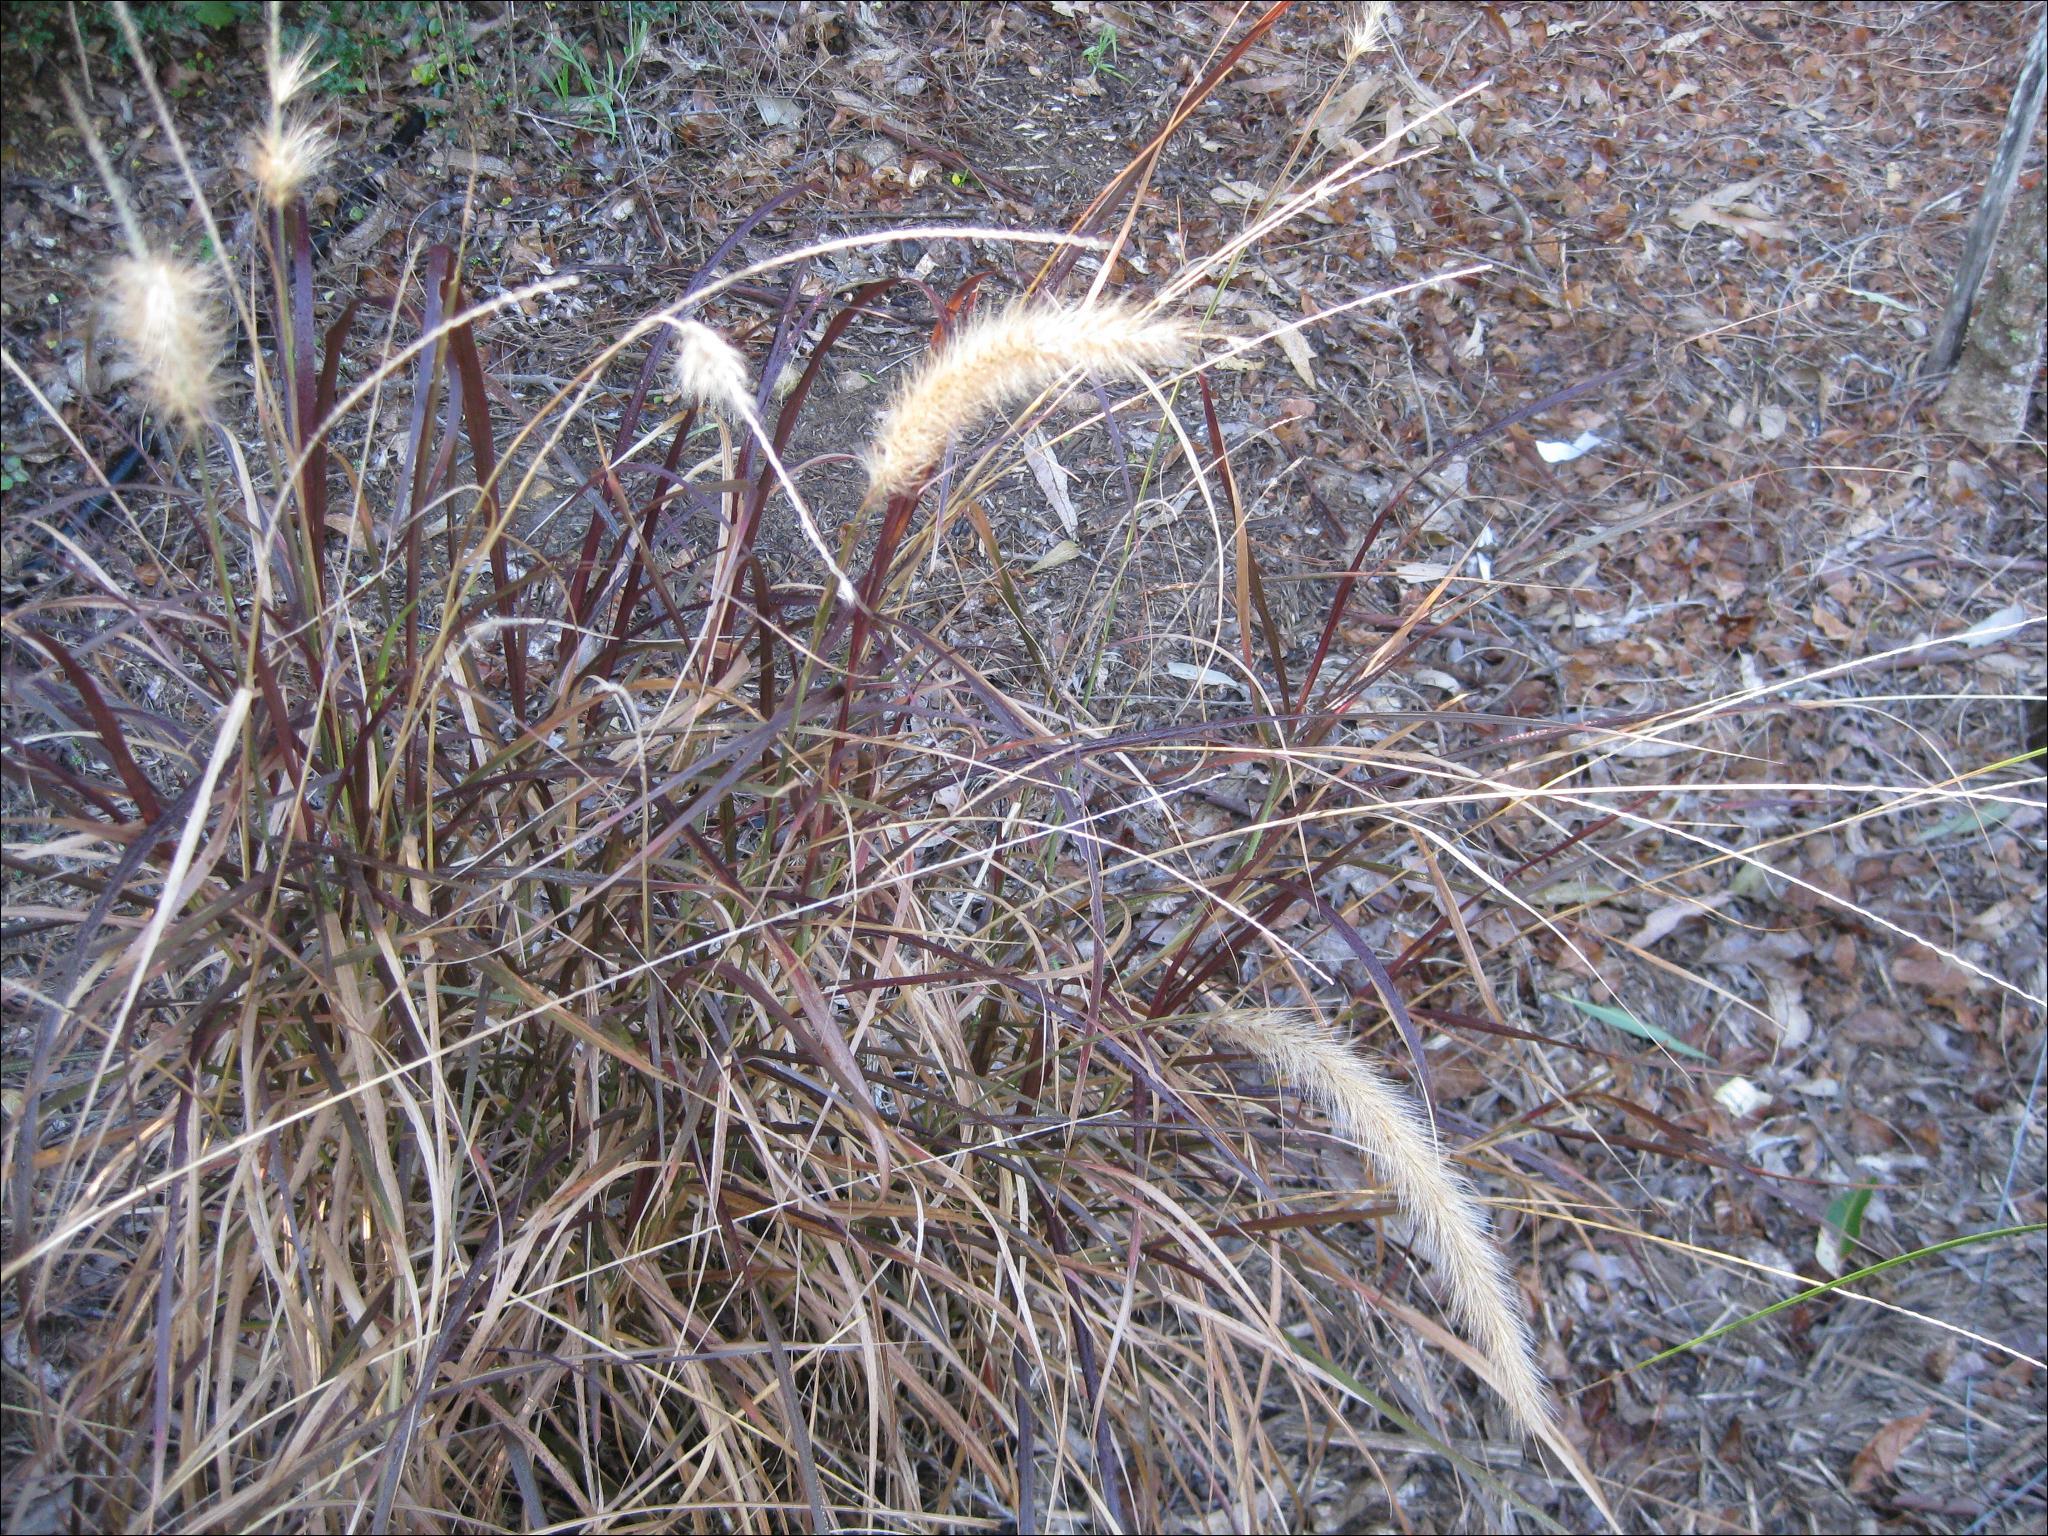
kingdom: Plantae
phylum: Tracheophyta
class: Liliopsida
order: Poales
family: Poaceae
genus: Cenchrus
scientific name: Cenchrus cupreus
